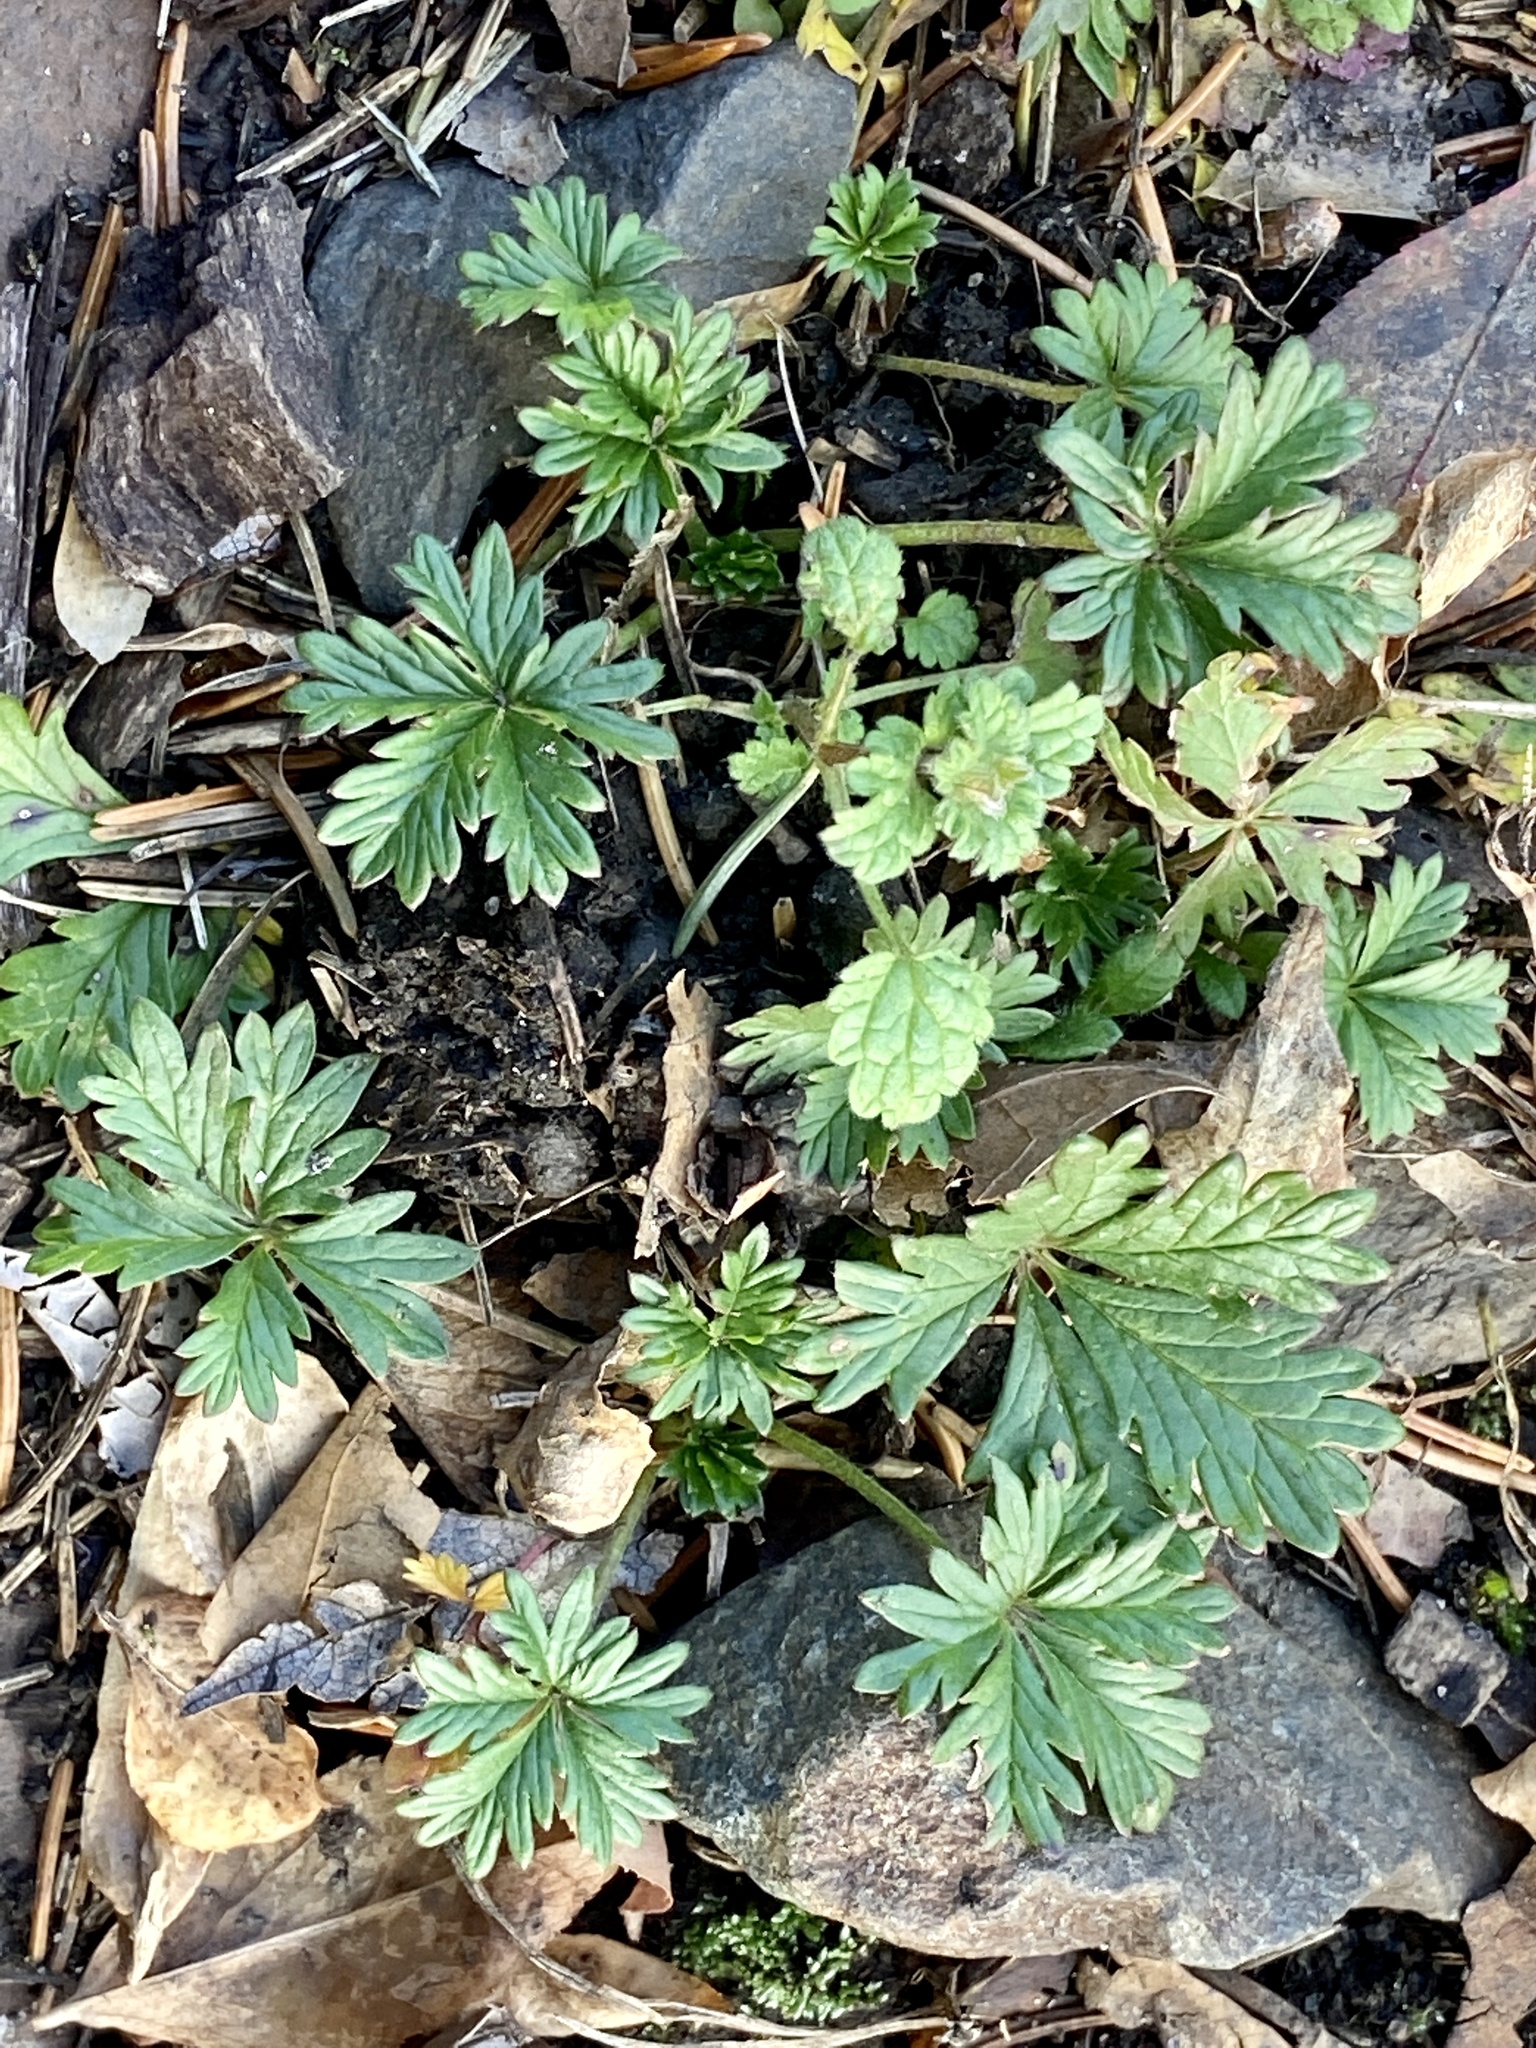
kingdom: Plantae
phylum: Tracheophyta
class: Magnoliopsida
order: Rosales
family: Rosaceae
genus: Potentilla
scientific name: Potentilla argentea
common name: Hoary cinquefoil
